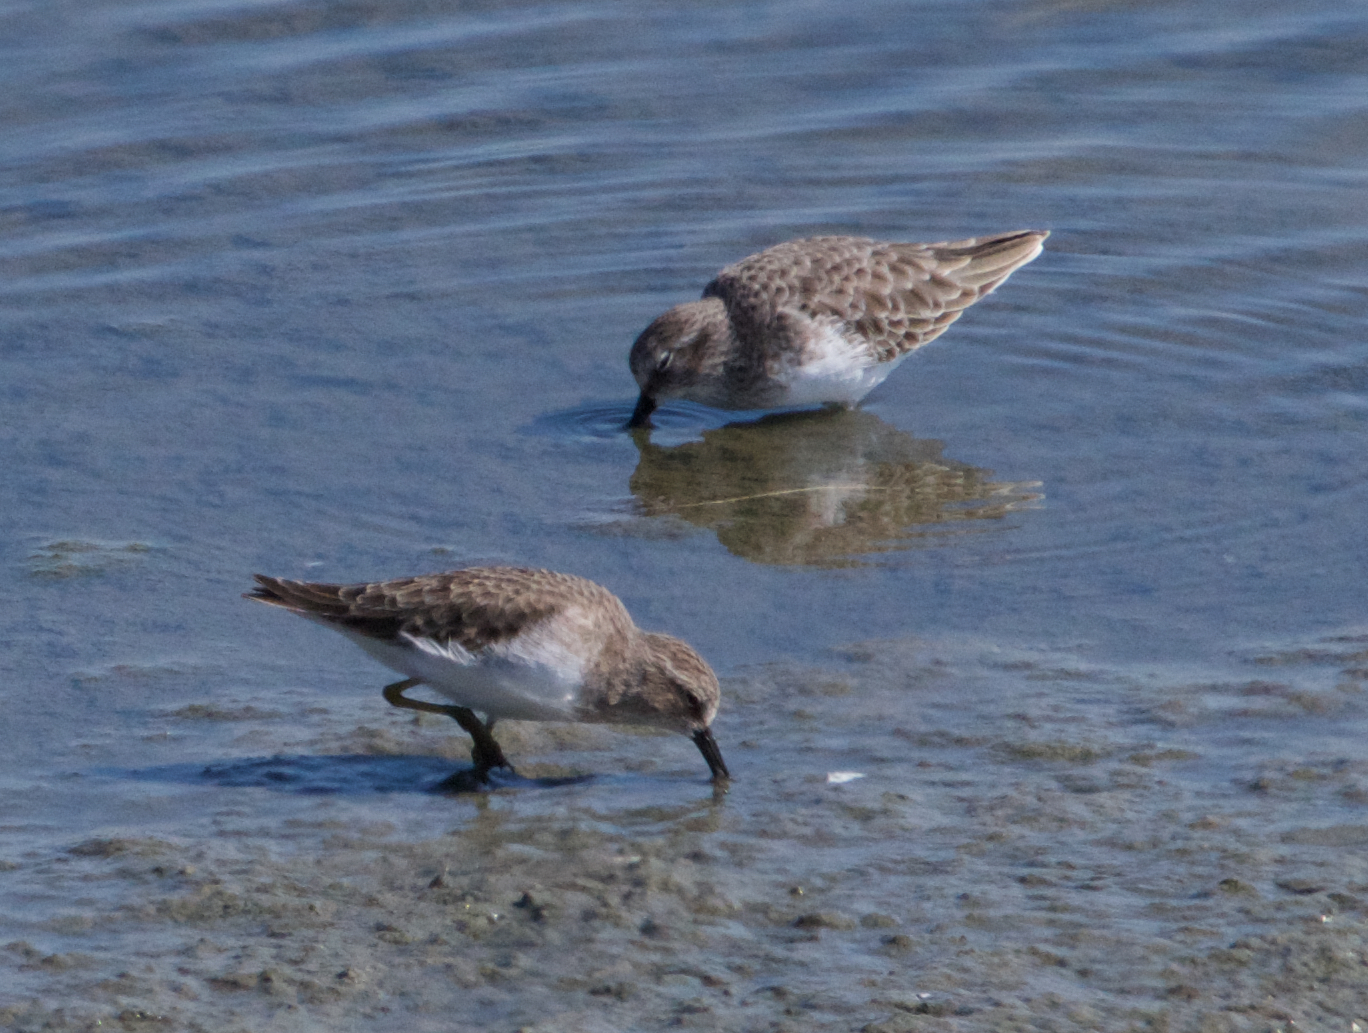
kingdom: Animalia
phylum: Chordata
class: Aves
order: Charadriiformes
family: Scolopacidae
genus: Calidris
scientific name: Calidris minutilla
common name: Least sandpiper
